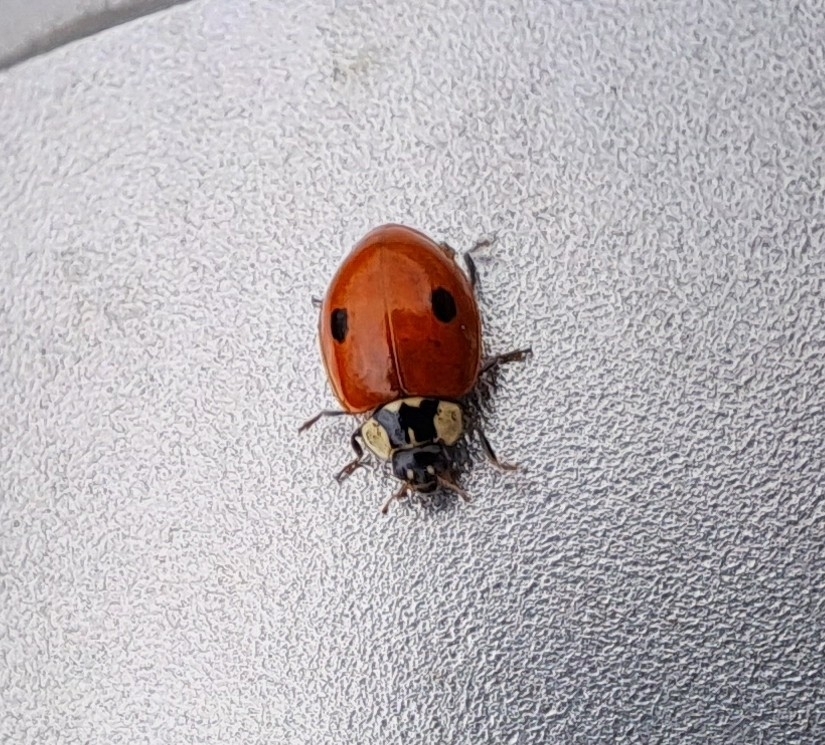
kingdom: Animalia
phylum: Arthropoda
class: Insecta
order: Coleoptera
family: Coccinellidae
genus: Adalia
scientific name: Adalia bipunctata
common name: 2-spot ladybird
